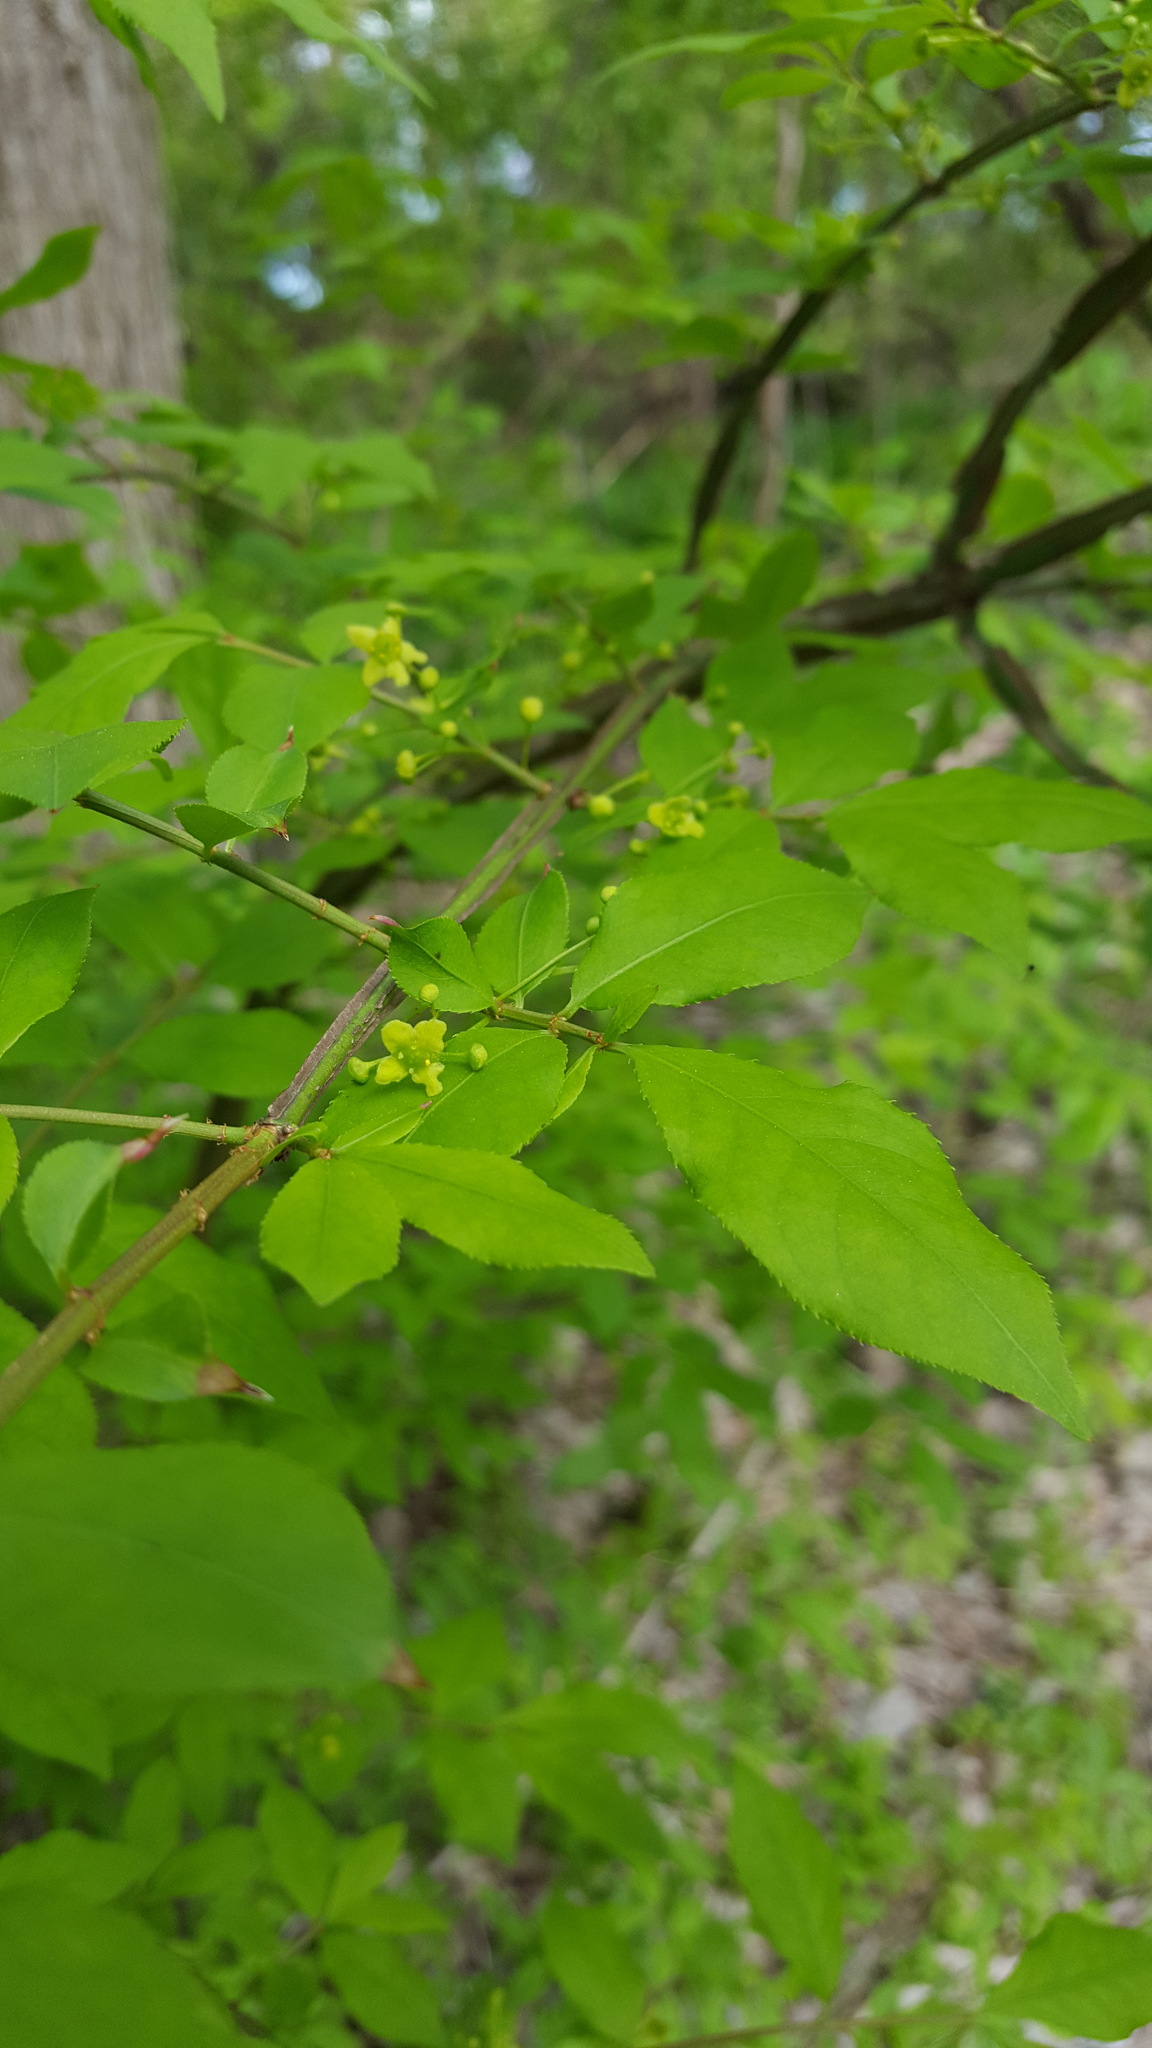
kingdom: Plantae
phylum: Tracheophyta
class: Magnoliopsida
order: Celastrales
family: Celastraceae
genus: Euonymus
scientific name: Euonymus alatus
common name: Winged euonymus
